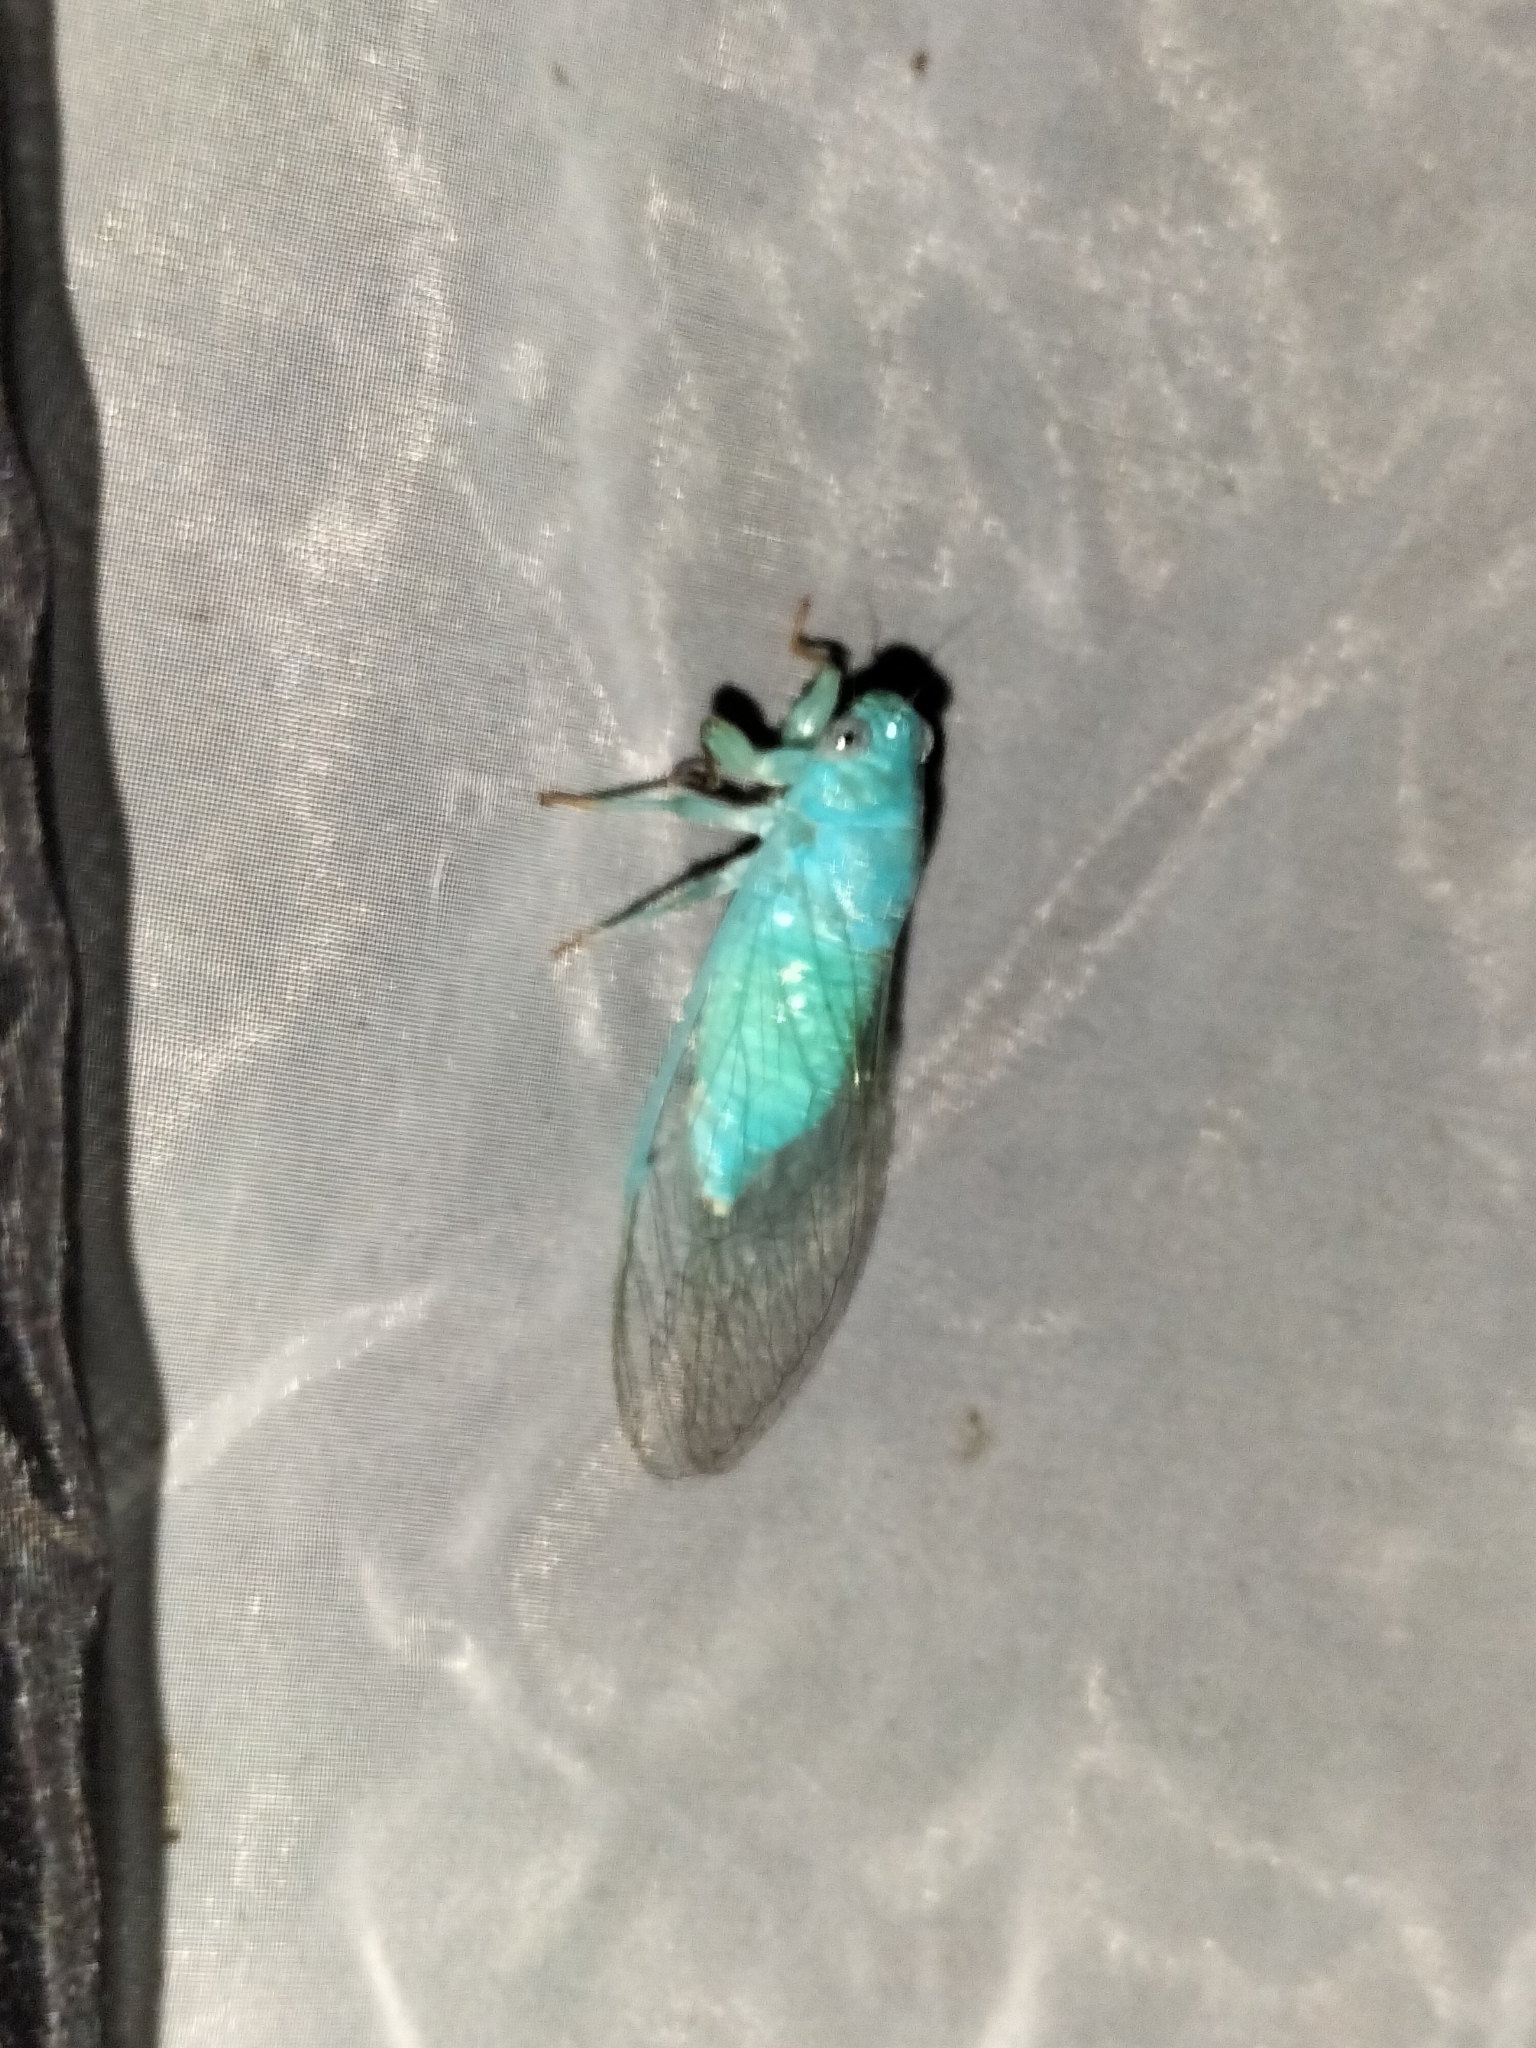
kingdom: Animalia
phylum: Arthropoda
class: Insecta
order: Hemiptera
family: Cicadidae
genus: Guineapsaltria
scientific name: Guineapsaltria flava
